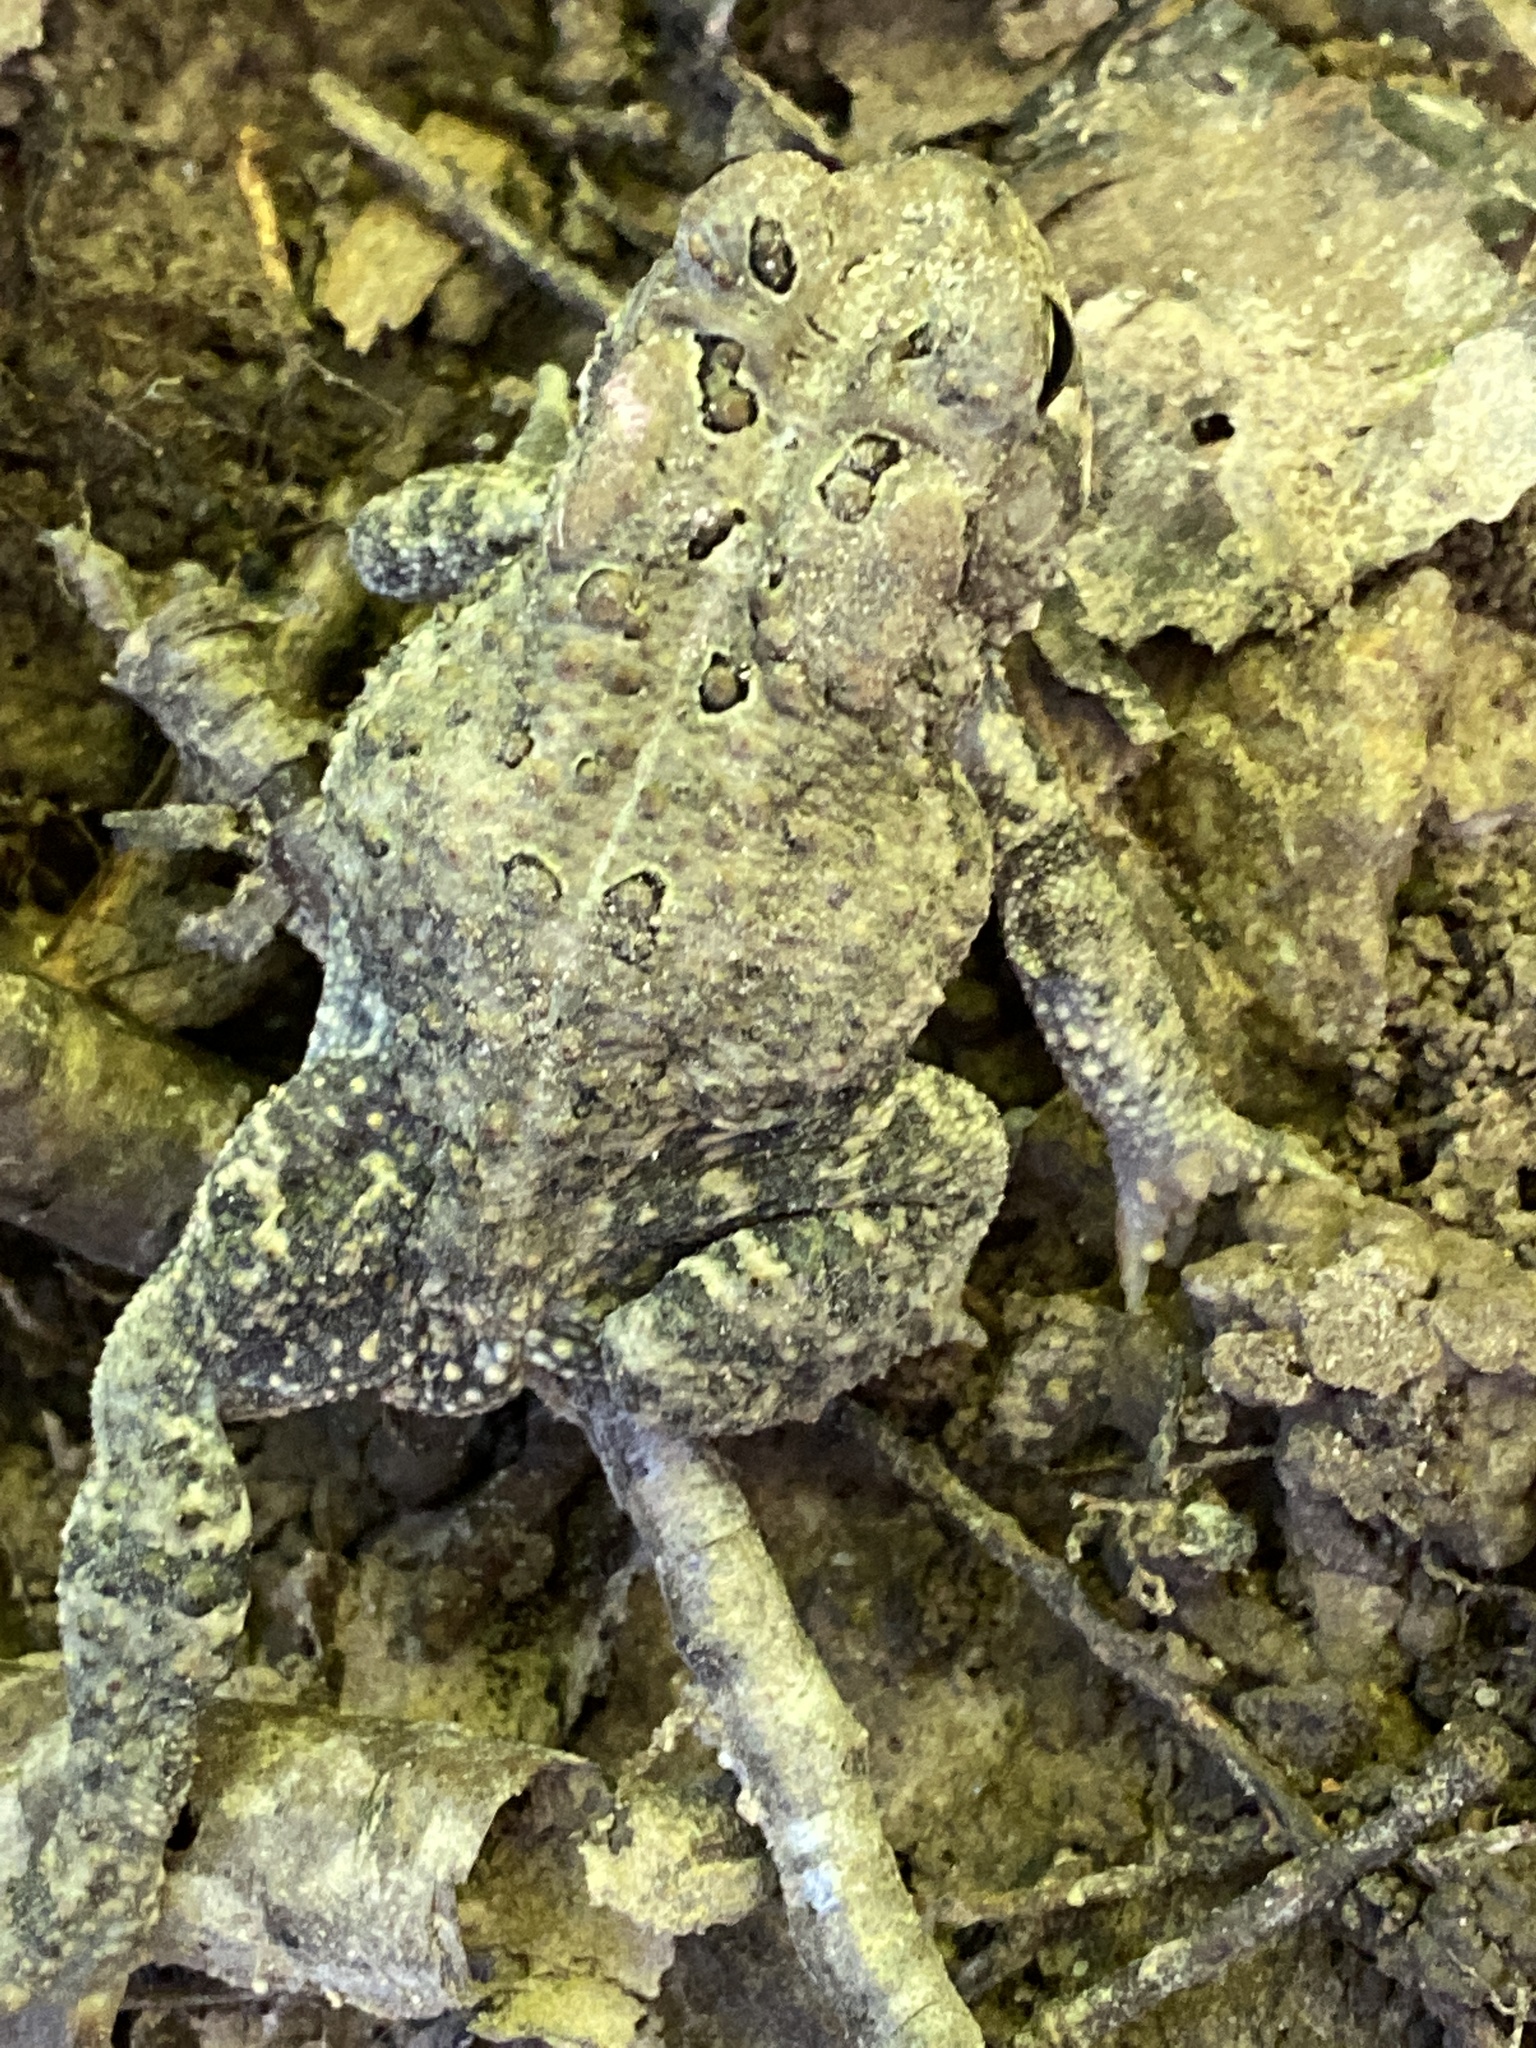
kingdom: Animalia
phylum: Chordata
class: Amphibia
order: Anura
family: Bufonidae
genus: Anaxyrus
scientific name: Anaxyrus americanus
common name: American toad
